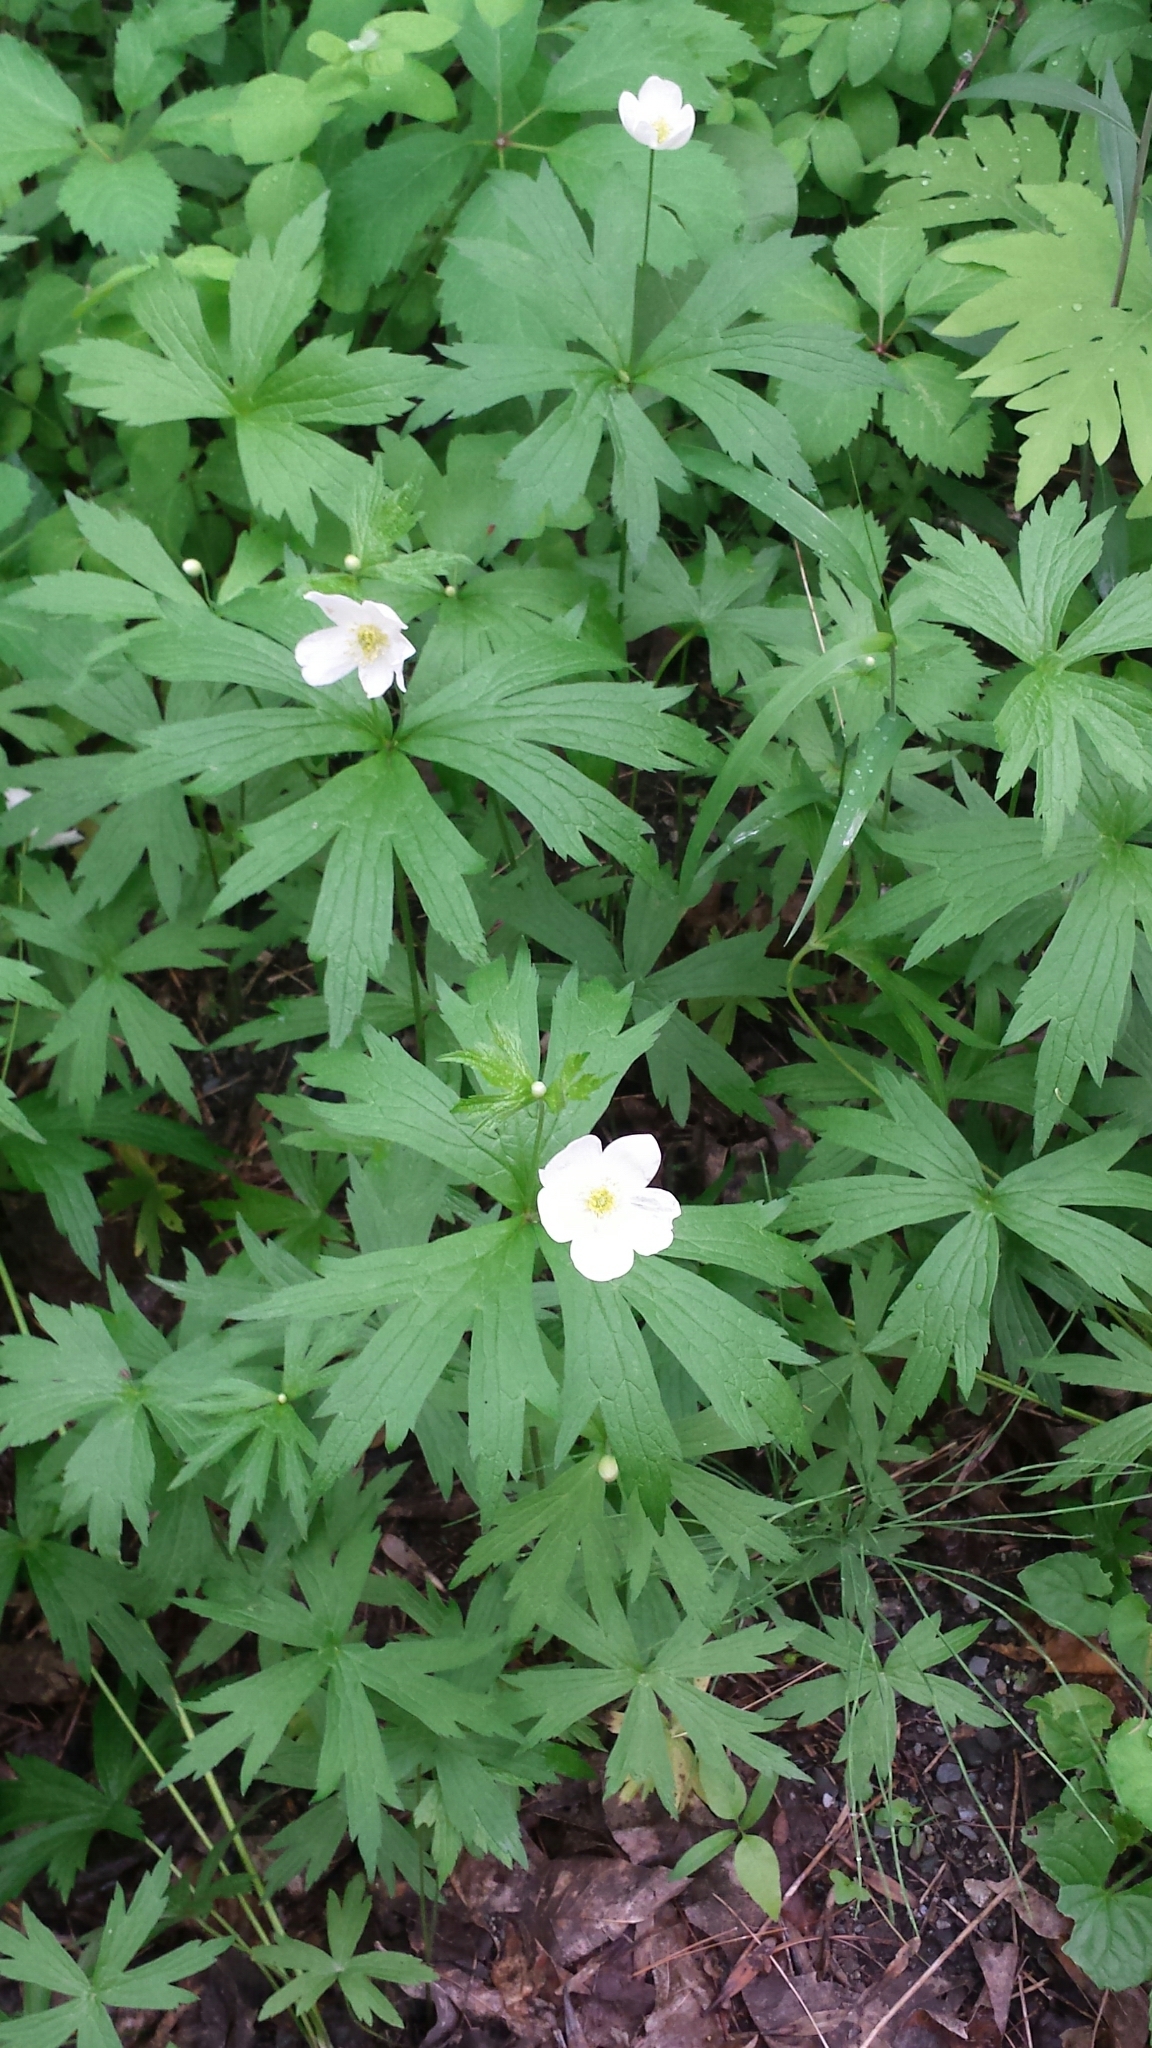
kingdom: Plantae
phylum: Tracheophyta
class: Magnoliopsida
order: Ranunculales
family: Ranunculaceae
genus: Anemonastrum
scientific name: Anemonastrum canadense
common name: Canada anemone
